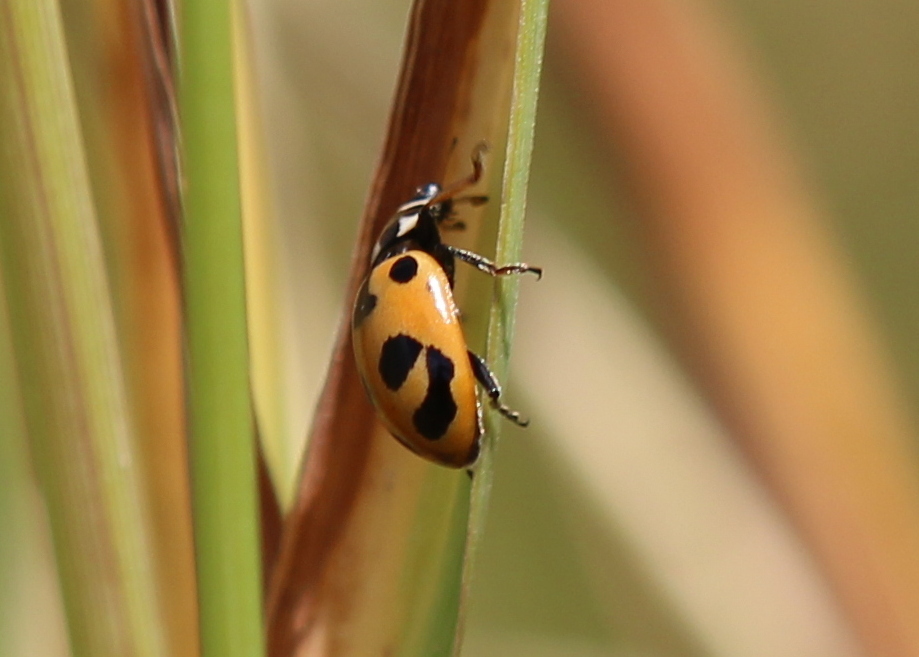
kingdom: Animalia
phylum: Arthropoda
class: Insecta
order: Coleoptera
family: Coccinellidae
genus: Hippodamia
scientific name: Hippodamia parenthesis
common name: Parenthesis lady beetle
